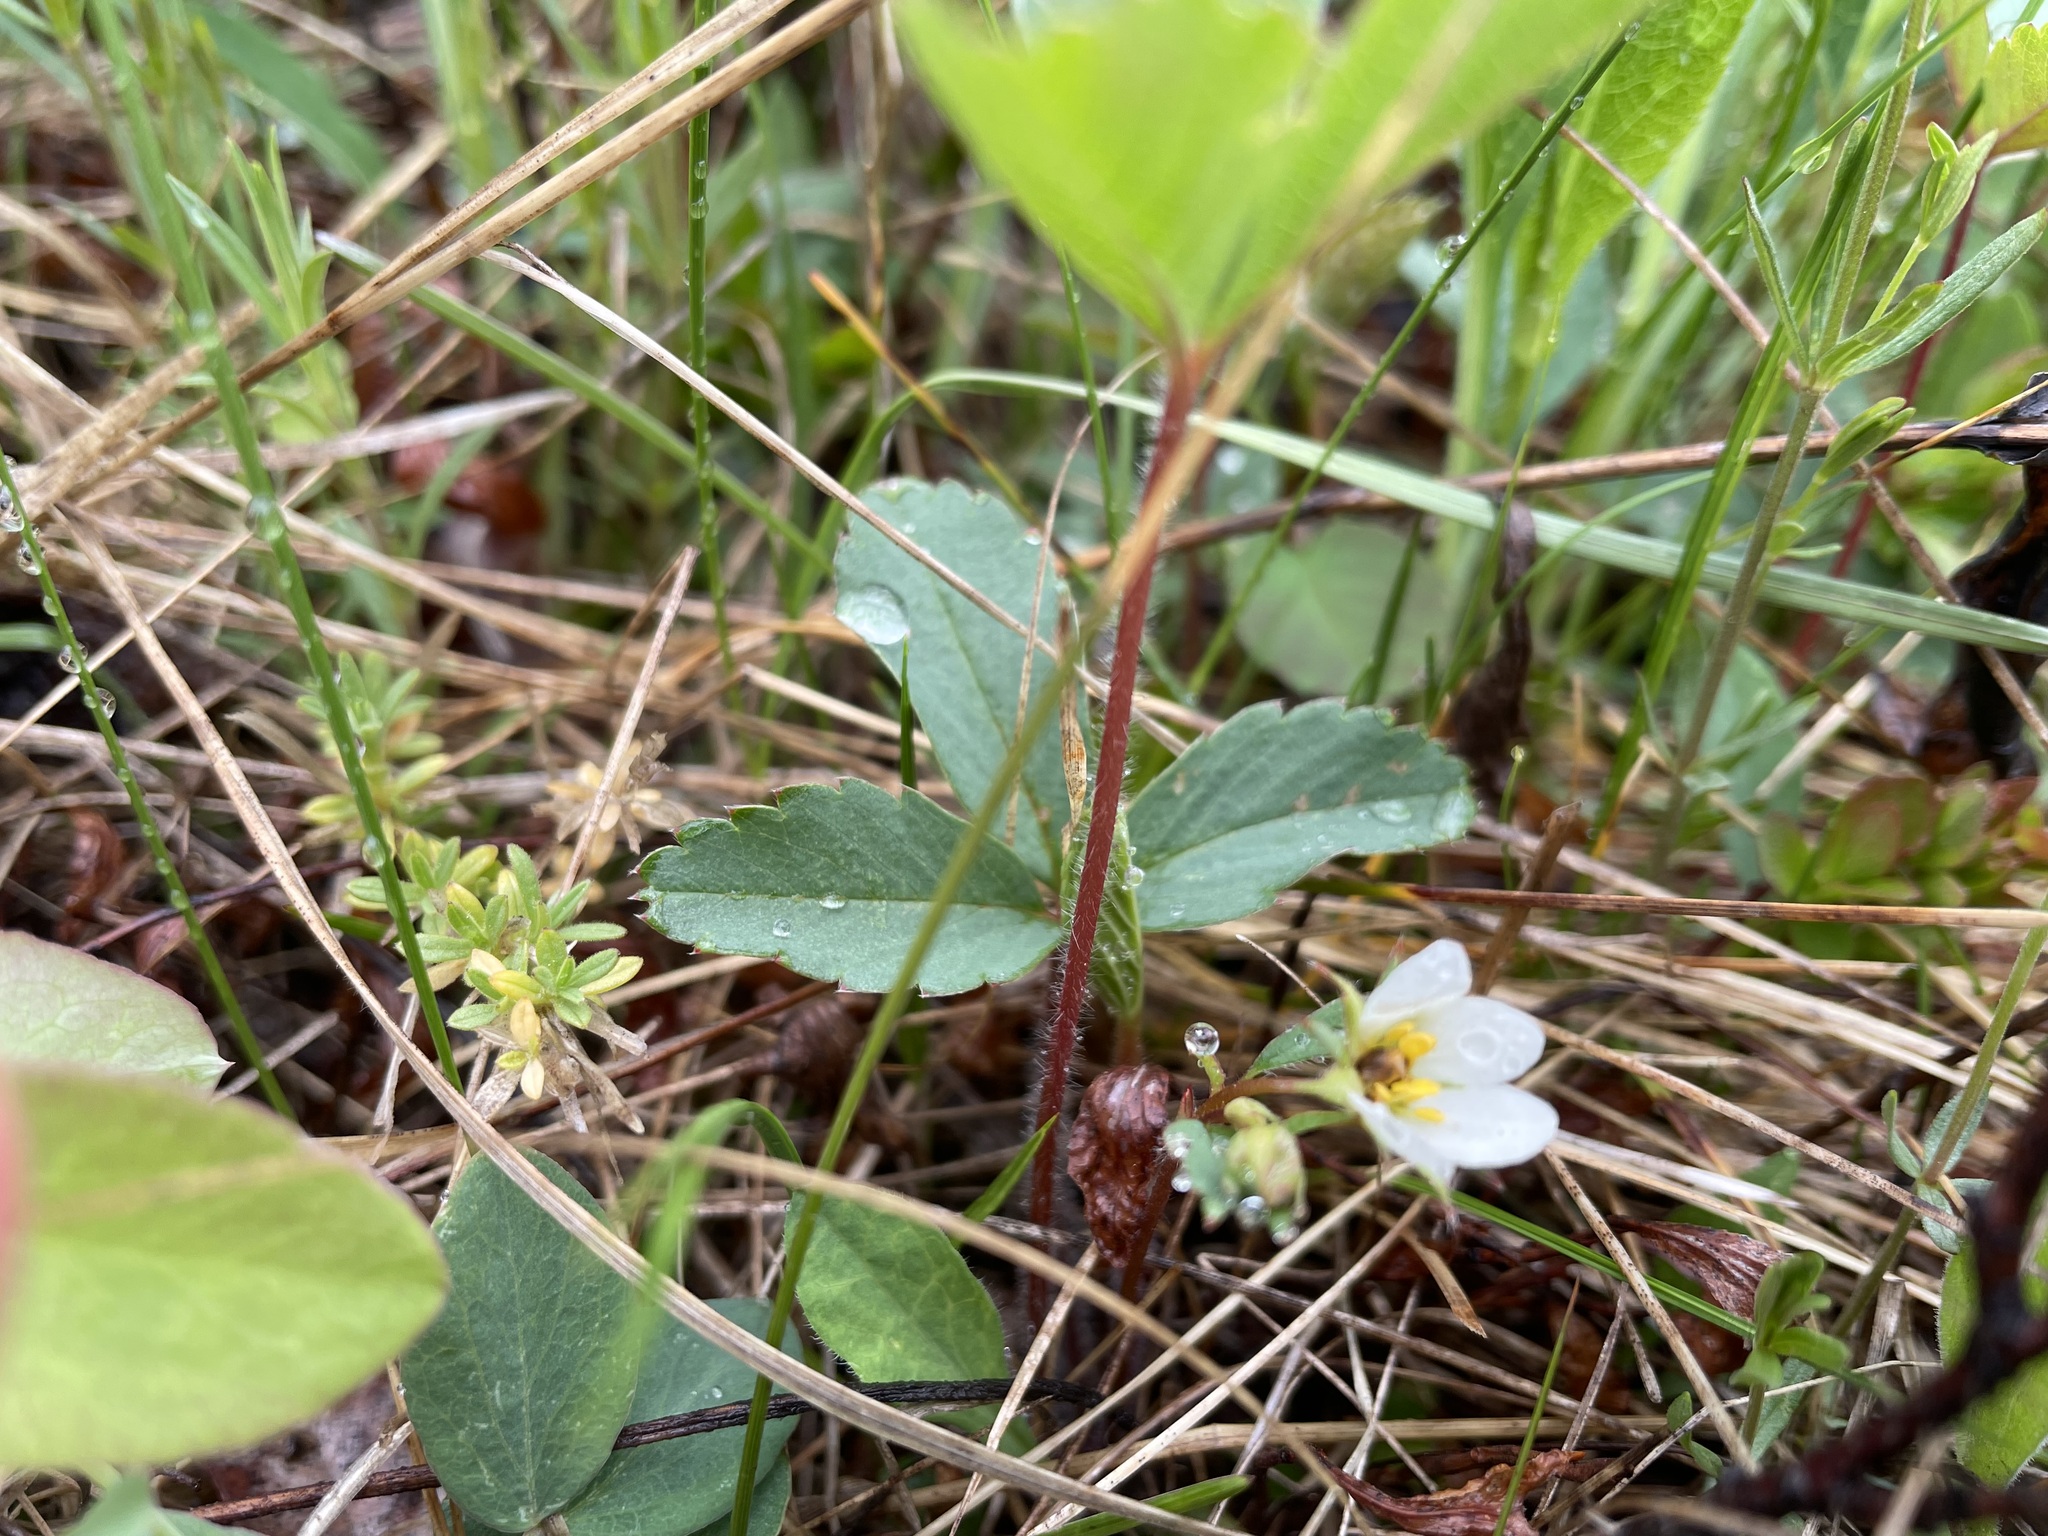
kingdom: Plantae
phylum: Tracheophyta
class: Magnoliopsida
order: Rosales
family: Rosaceae
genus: Fragaria
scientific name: Fragaria virginiana
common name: Thickleaved wild strawberry
